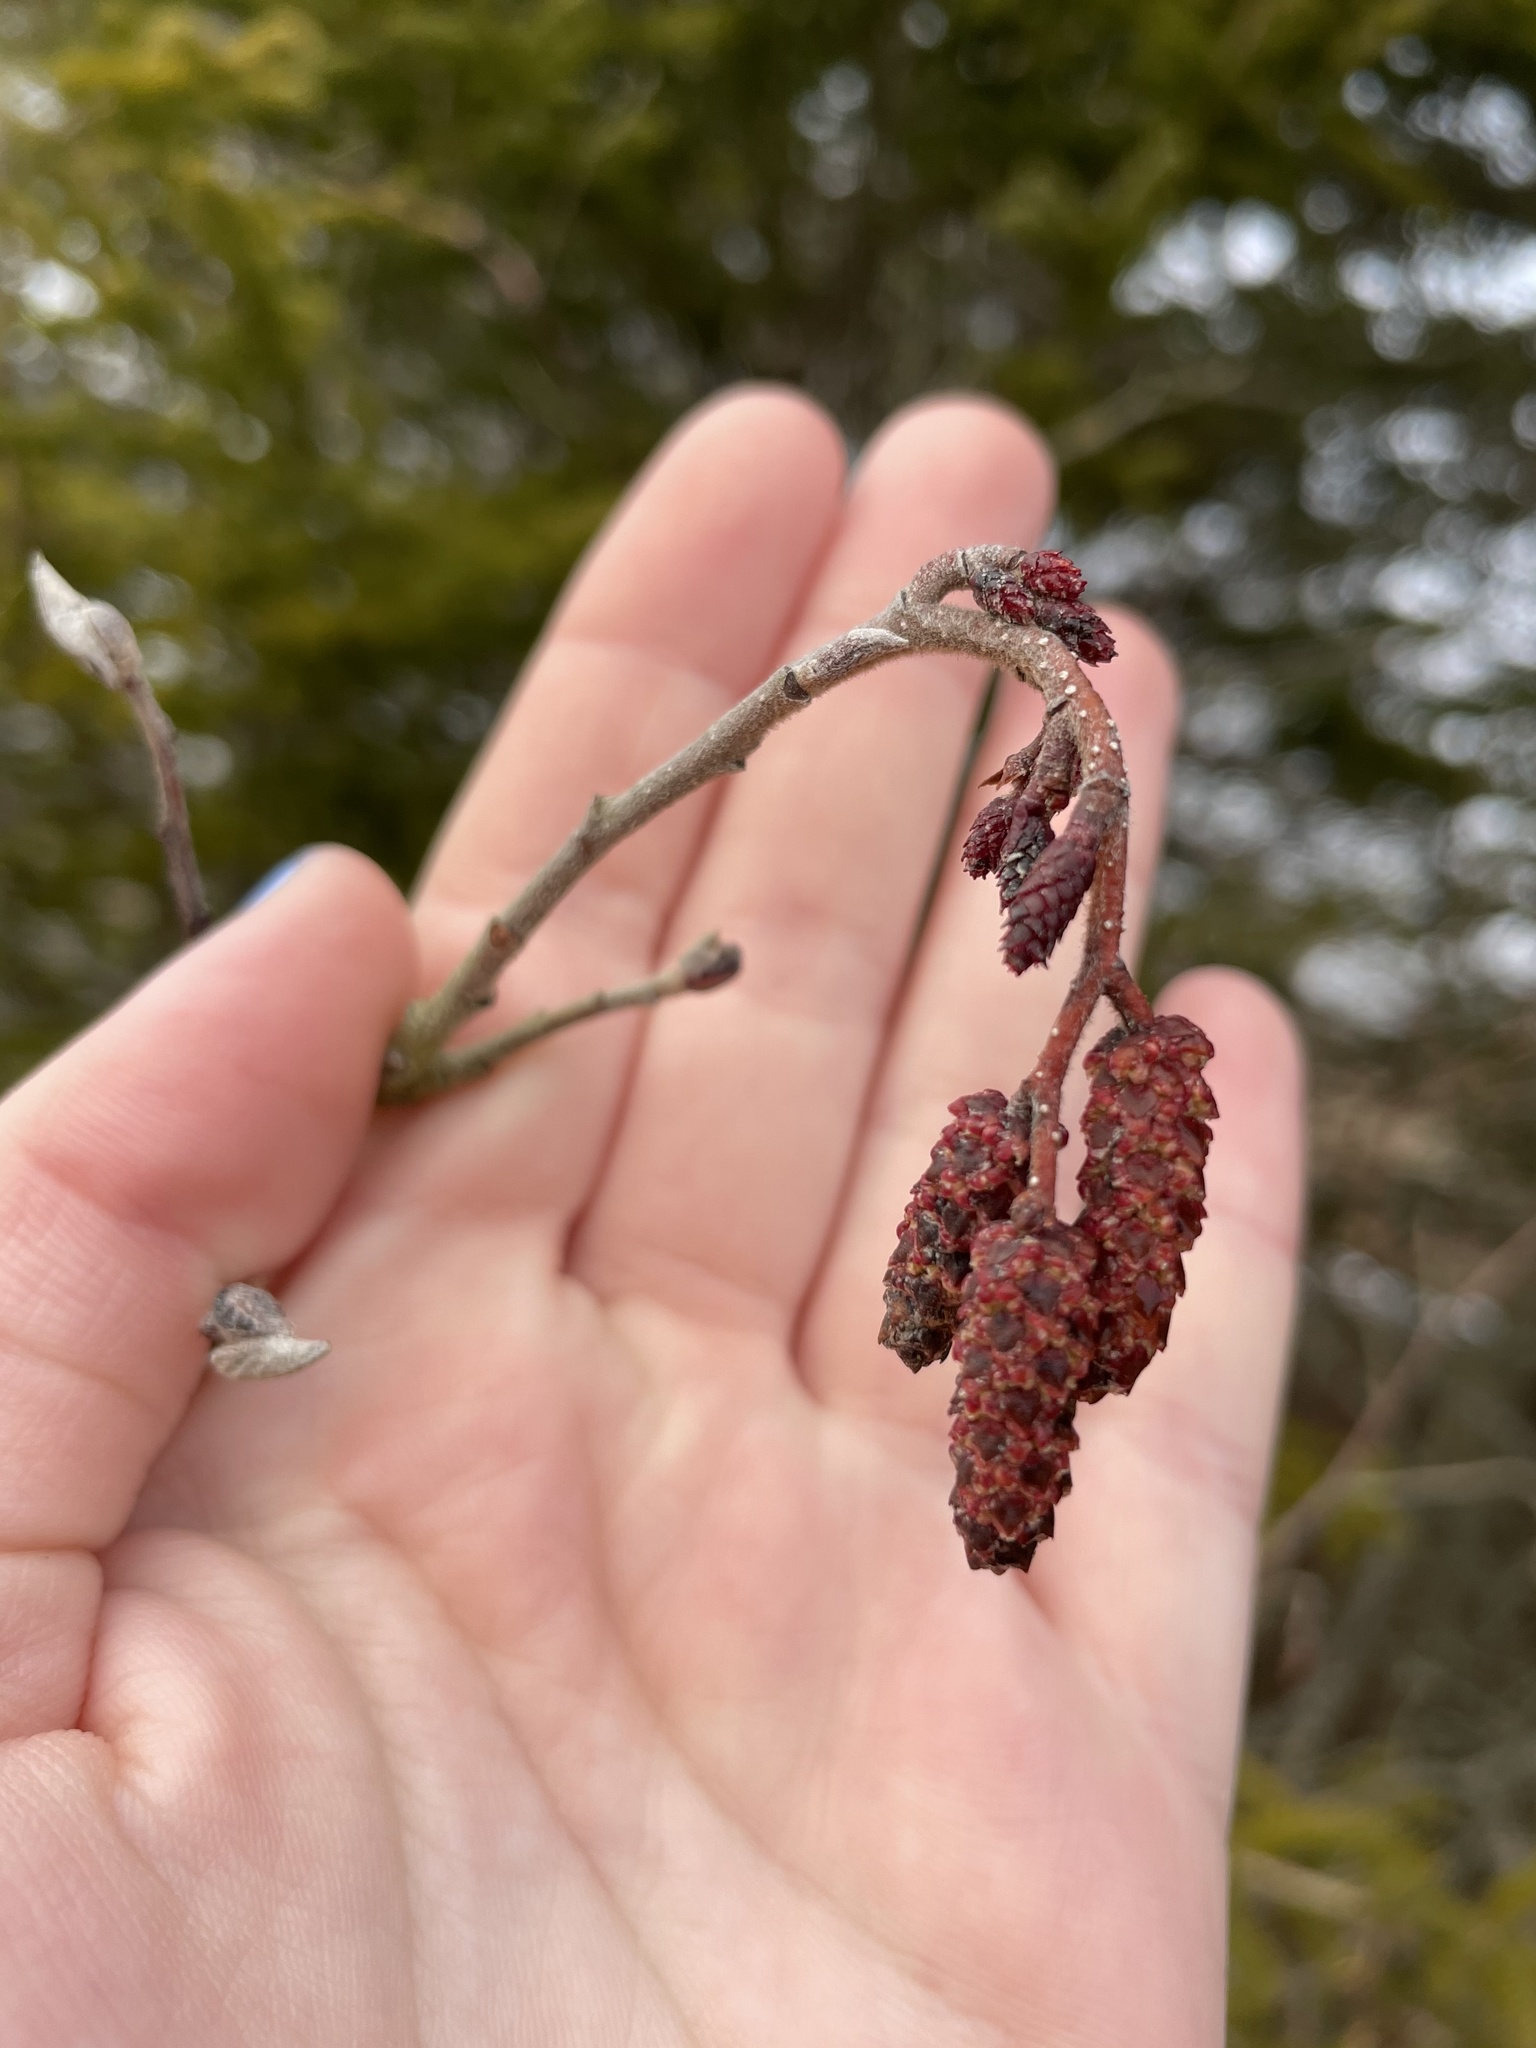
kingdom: Plantae
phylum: Tracheophyta
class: Magnoliopsida
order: Fagales
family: Betulaceae
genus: Alnus
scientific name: Alnus incana
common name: Grey alder
